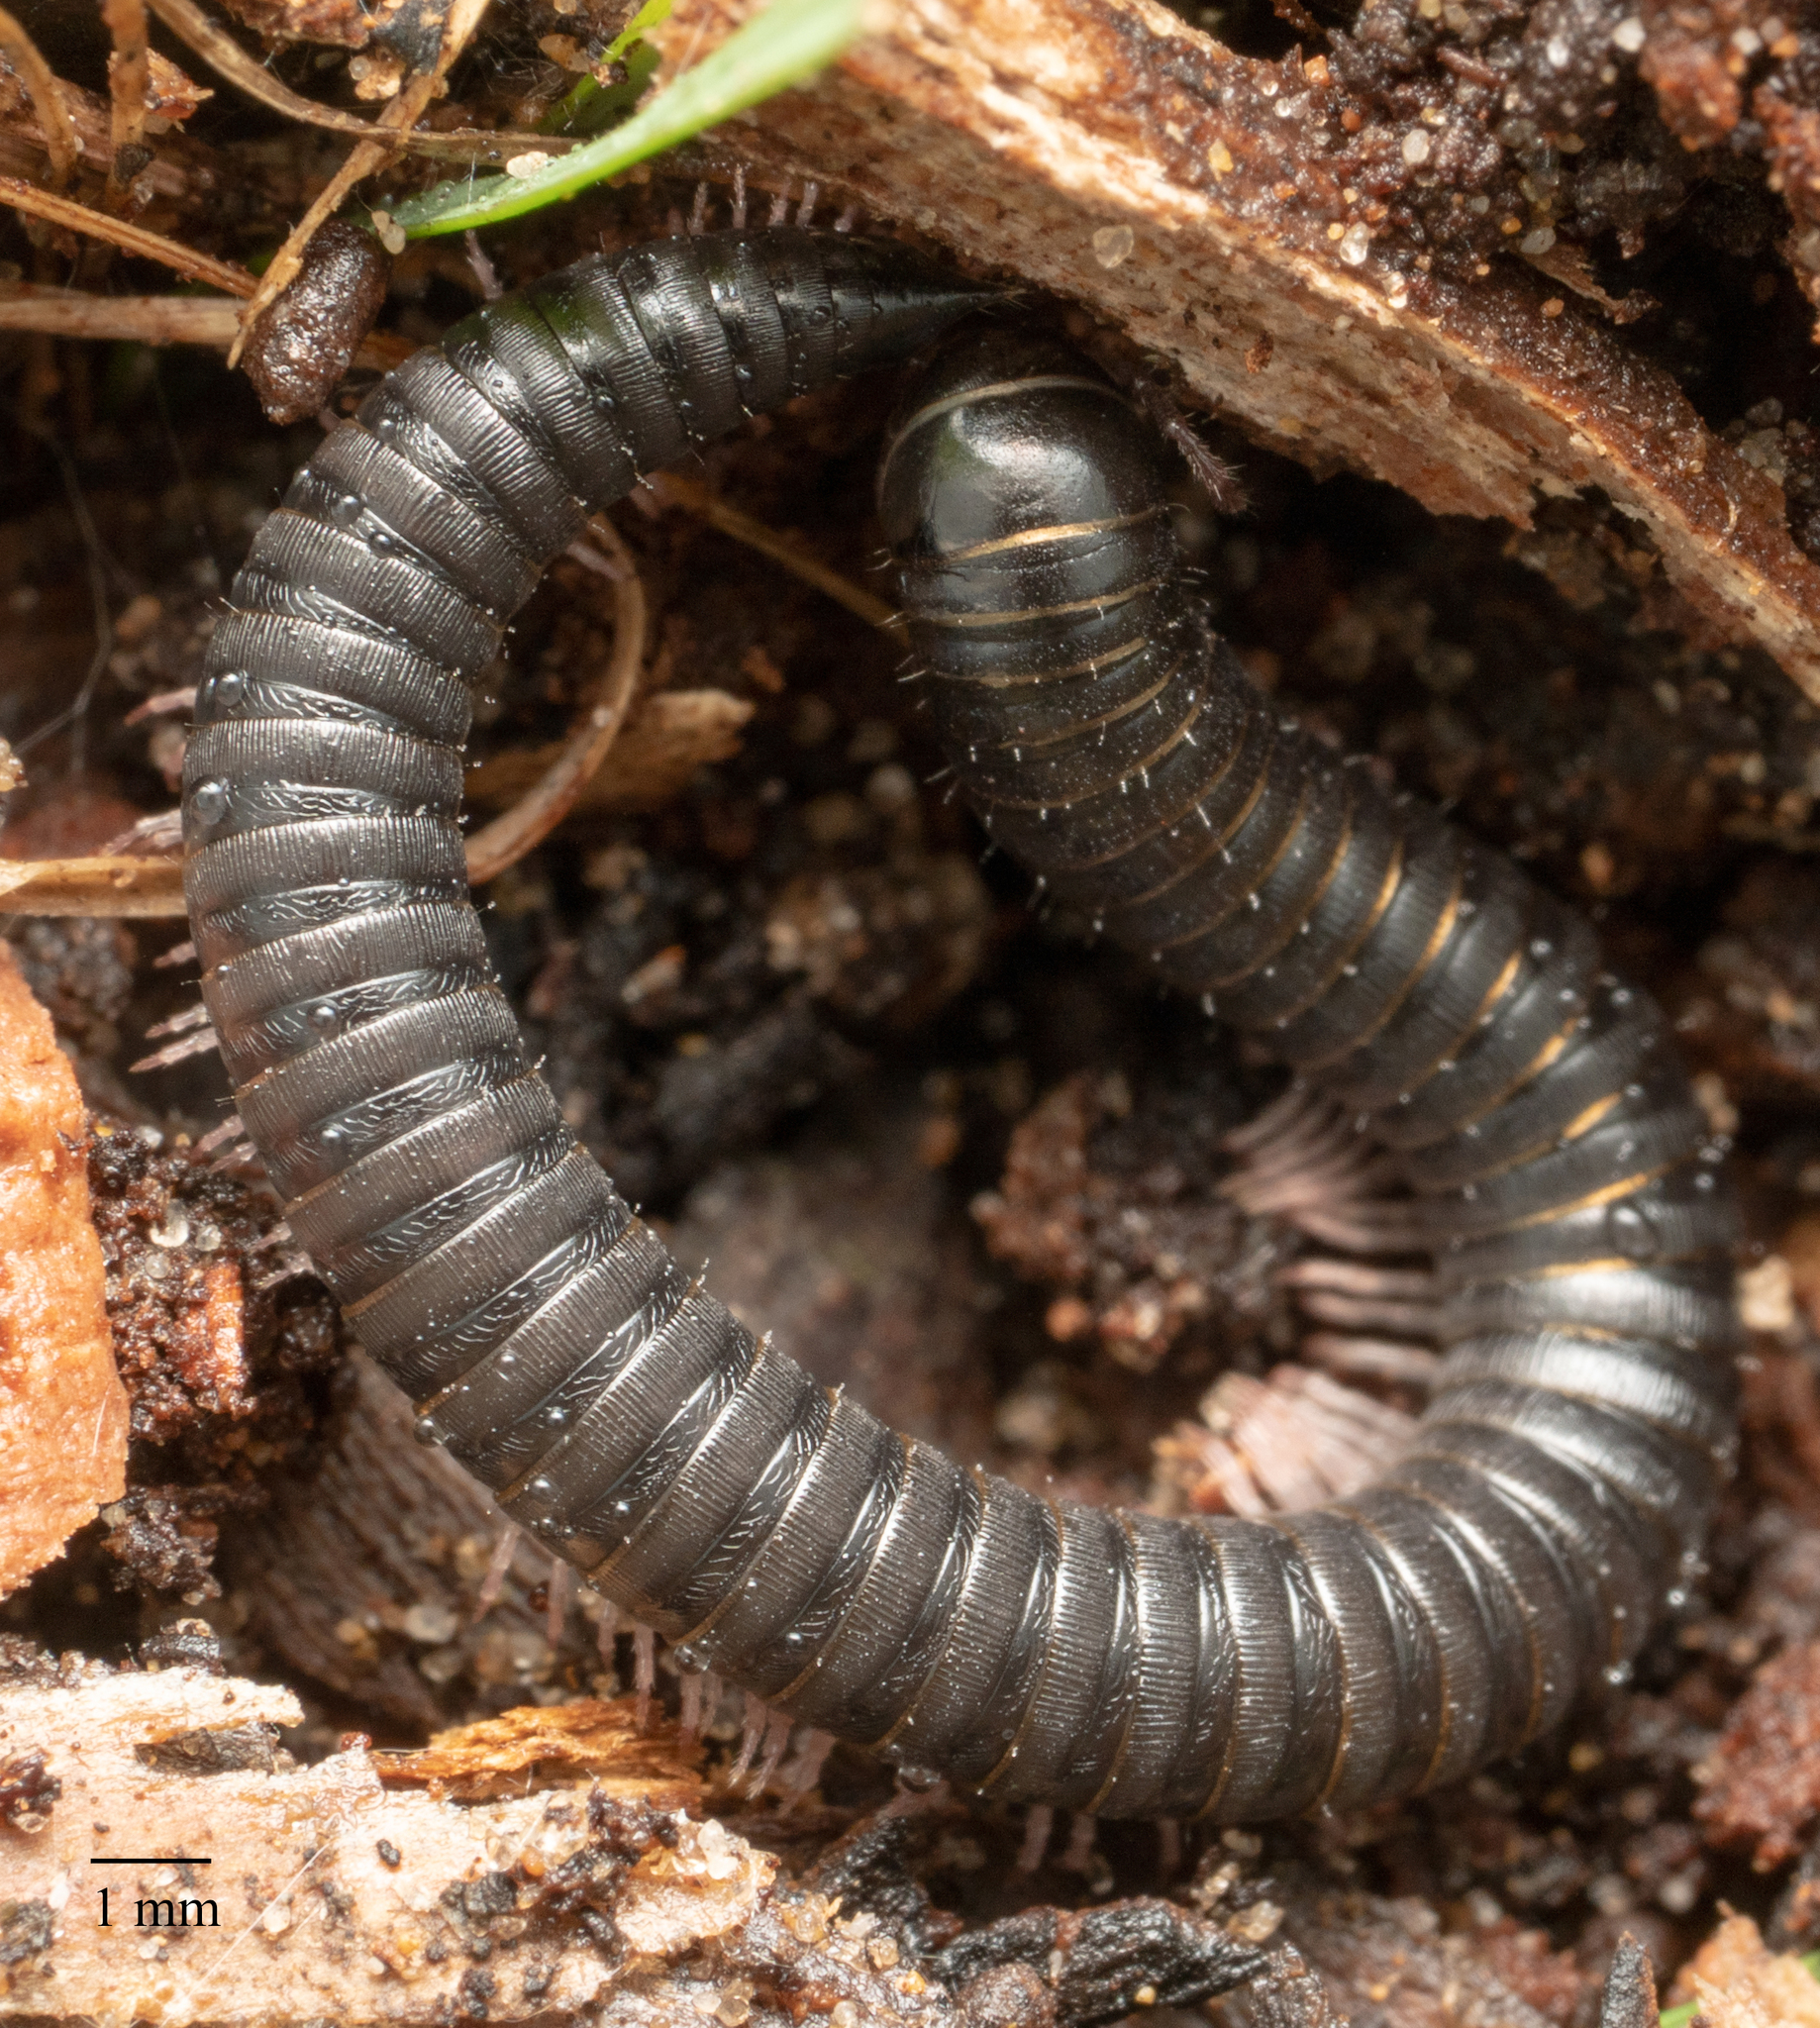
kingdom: Animalia
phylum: Arthropoda
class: Diplopoda
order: Julida
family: Julidae
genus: Ommatoiulus
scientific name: Ommatoiulus moreleti
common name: Portuguese millipede
